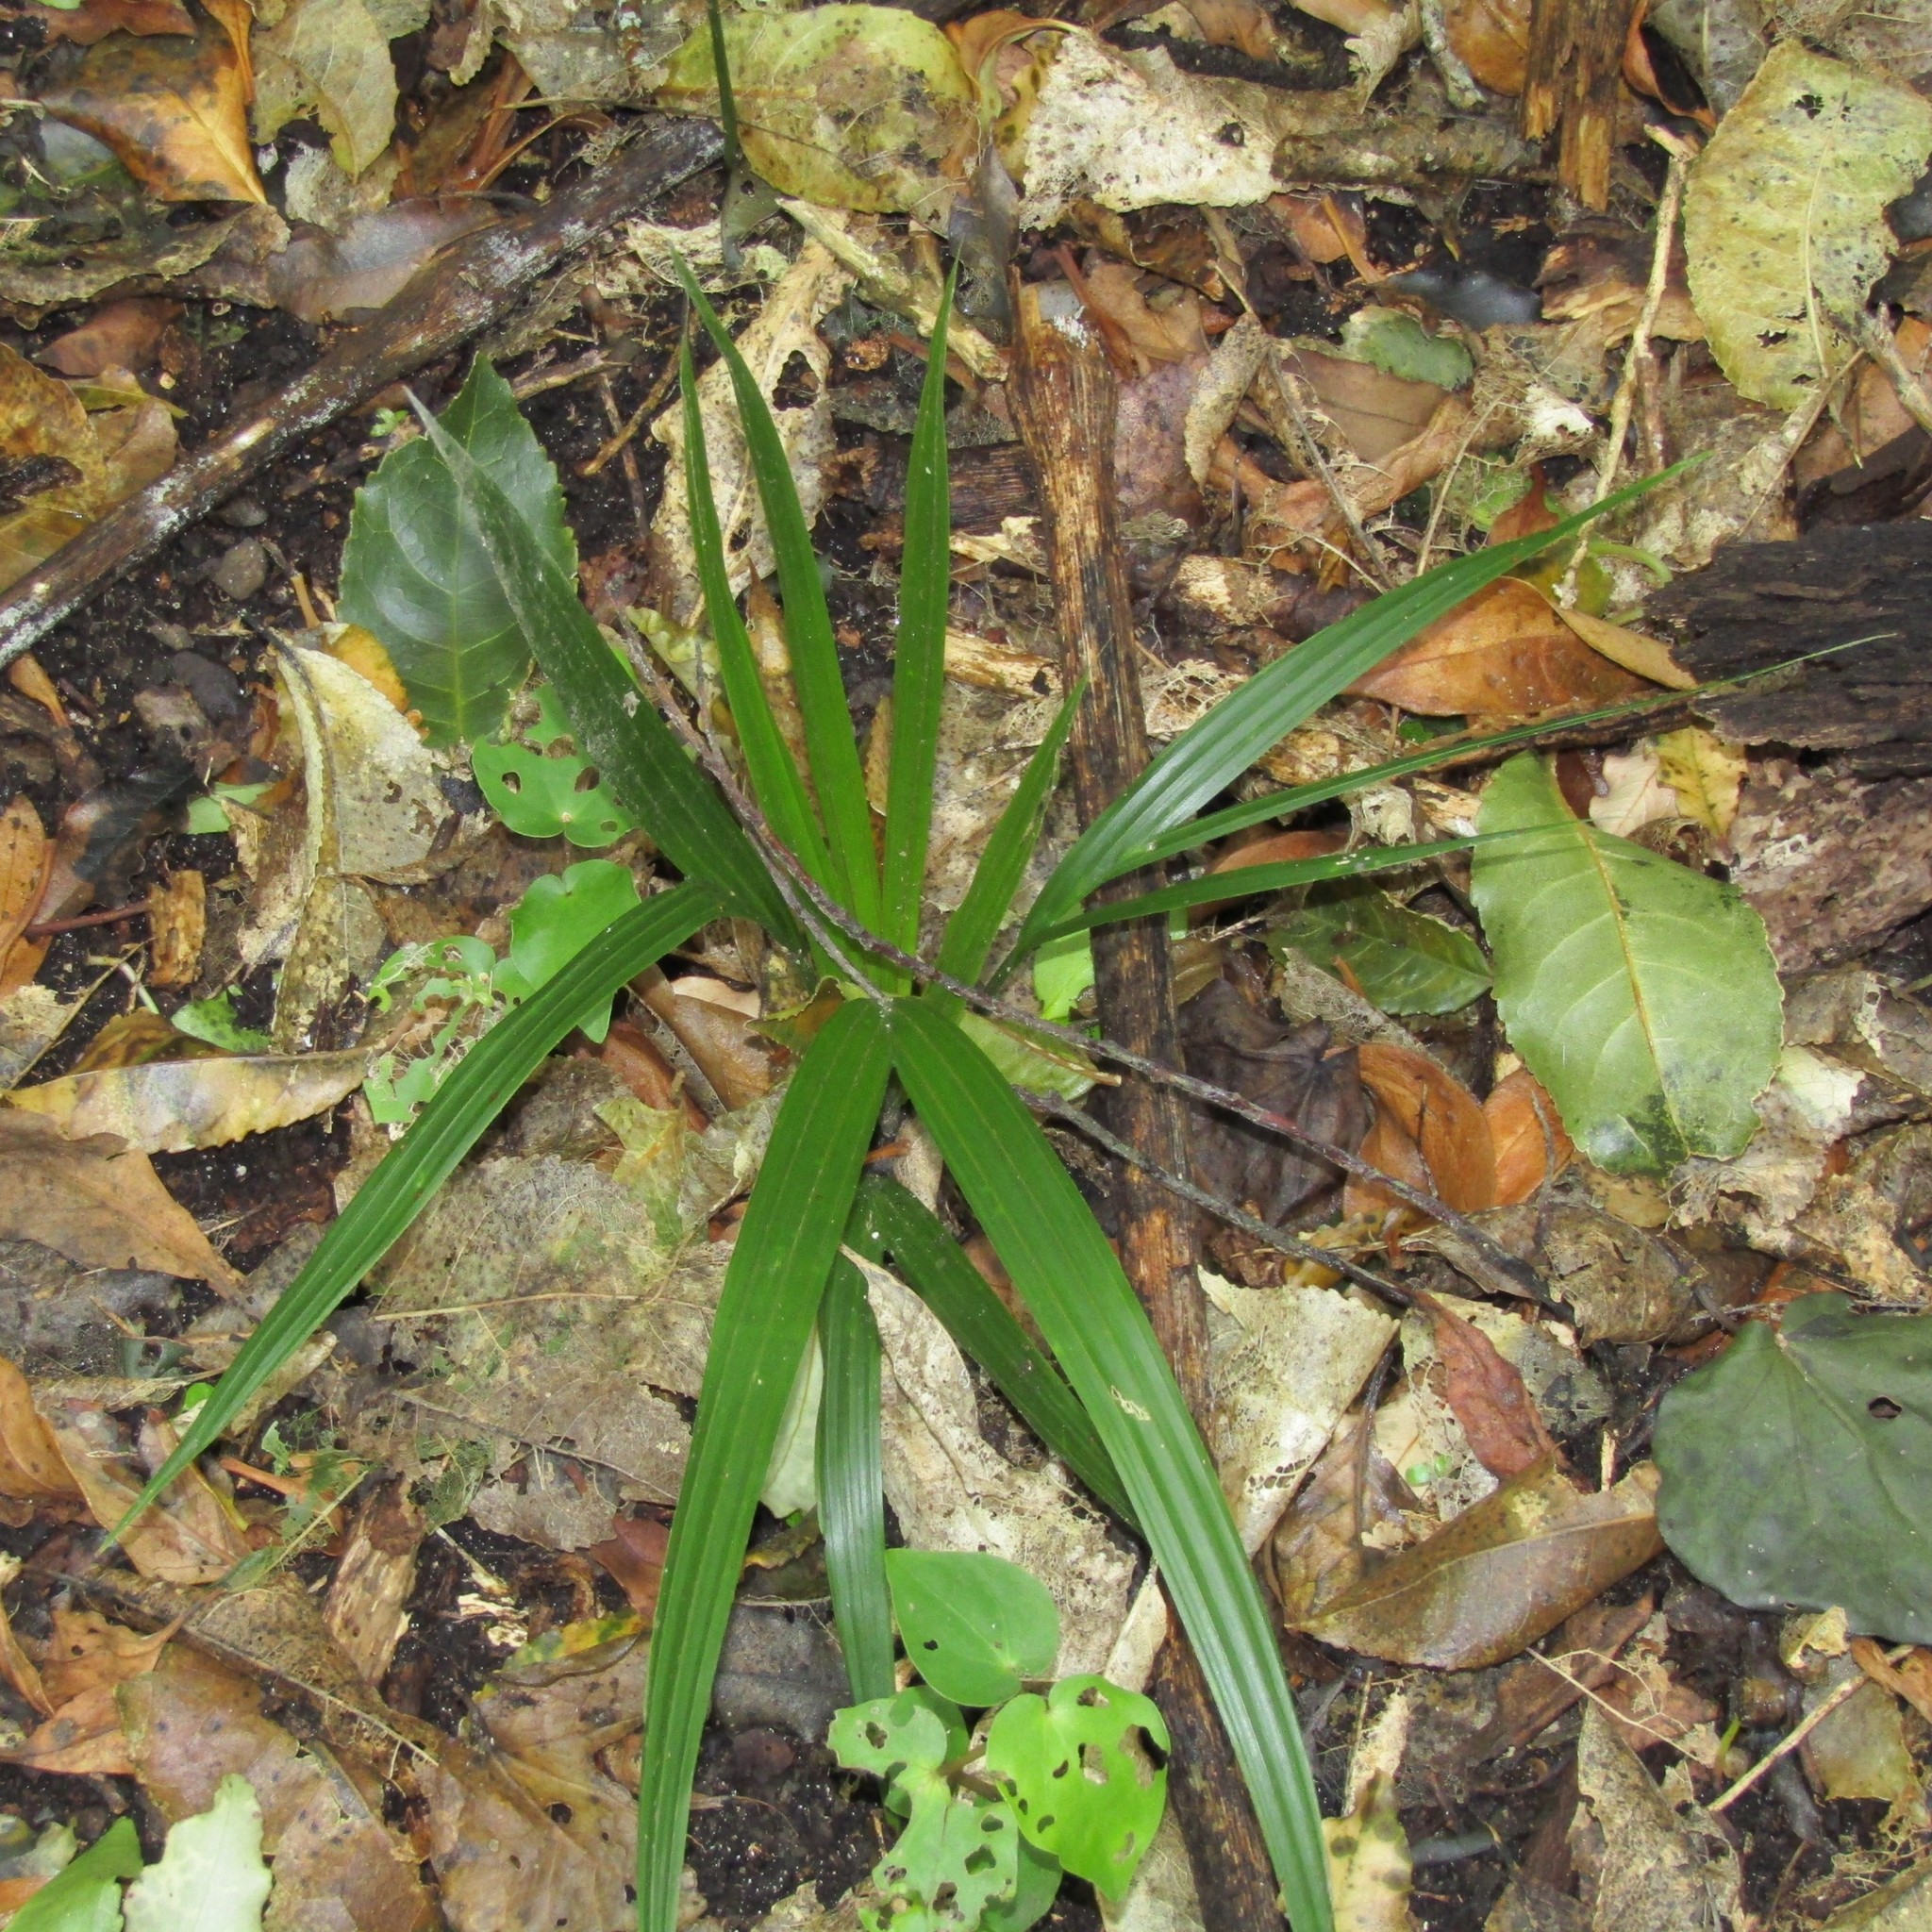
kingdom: Plantae
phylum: Tracheophyta
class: Liliopsida
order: Arecales
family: Arecaceae
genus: Rhopalostylis
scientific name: Rhopalostylis sapida
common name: Feather-duster palm
